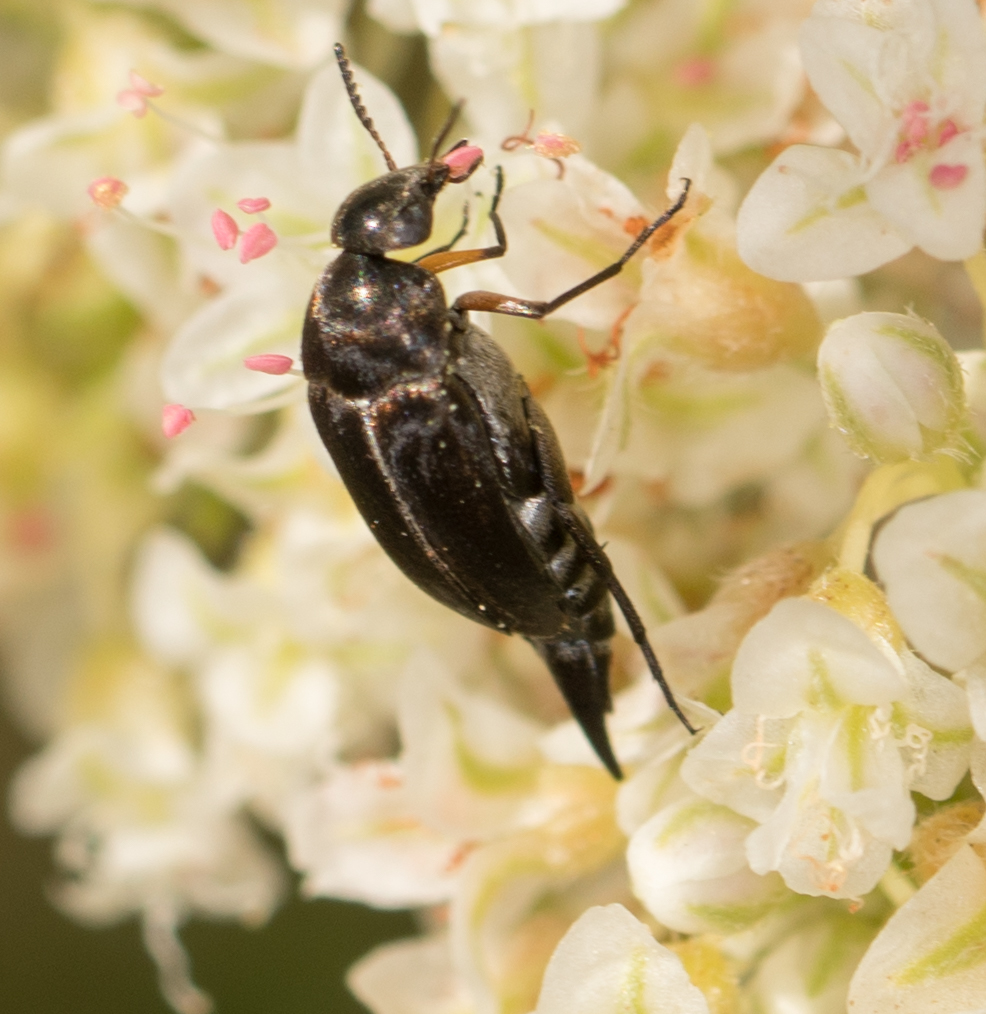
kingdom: Animalia
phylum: Arthropoda
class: Insecta
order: Coleoptera
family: Mordellidae
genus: Mordella
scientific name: Mordella hubbsi
